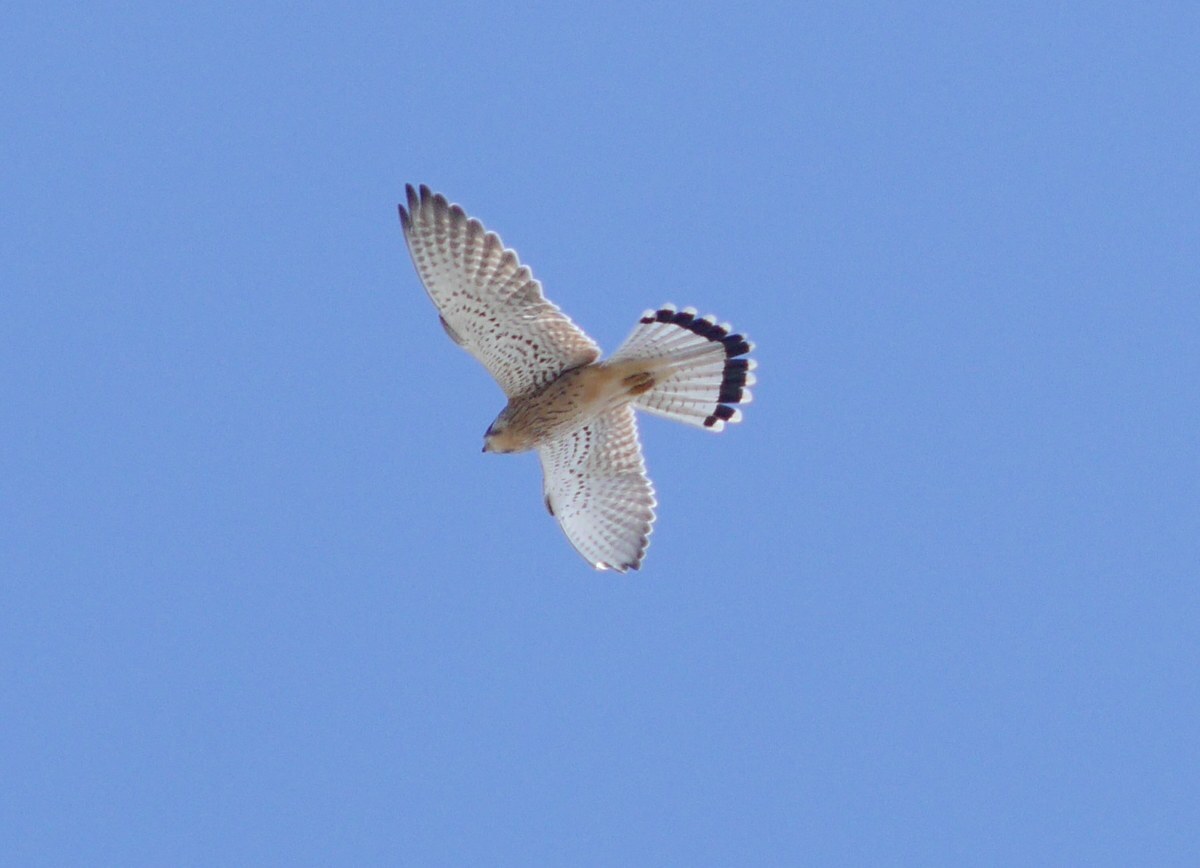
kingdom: Animalia
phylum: Chordata
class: Aves
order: Falconiformes
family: Falconidae
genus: Falco
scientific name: Falco tinnunculus
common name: Common kestrel
